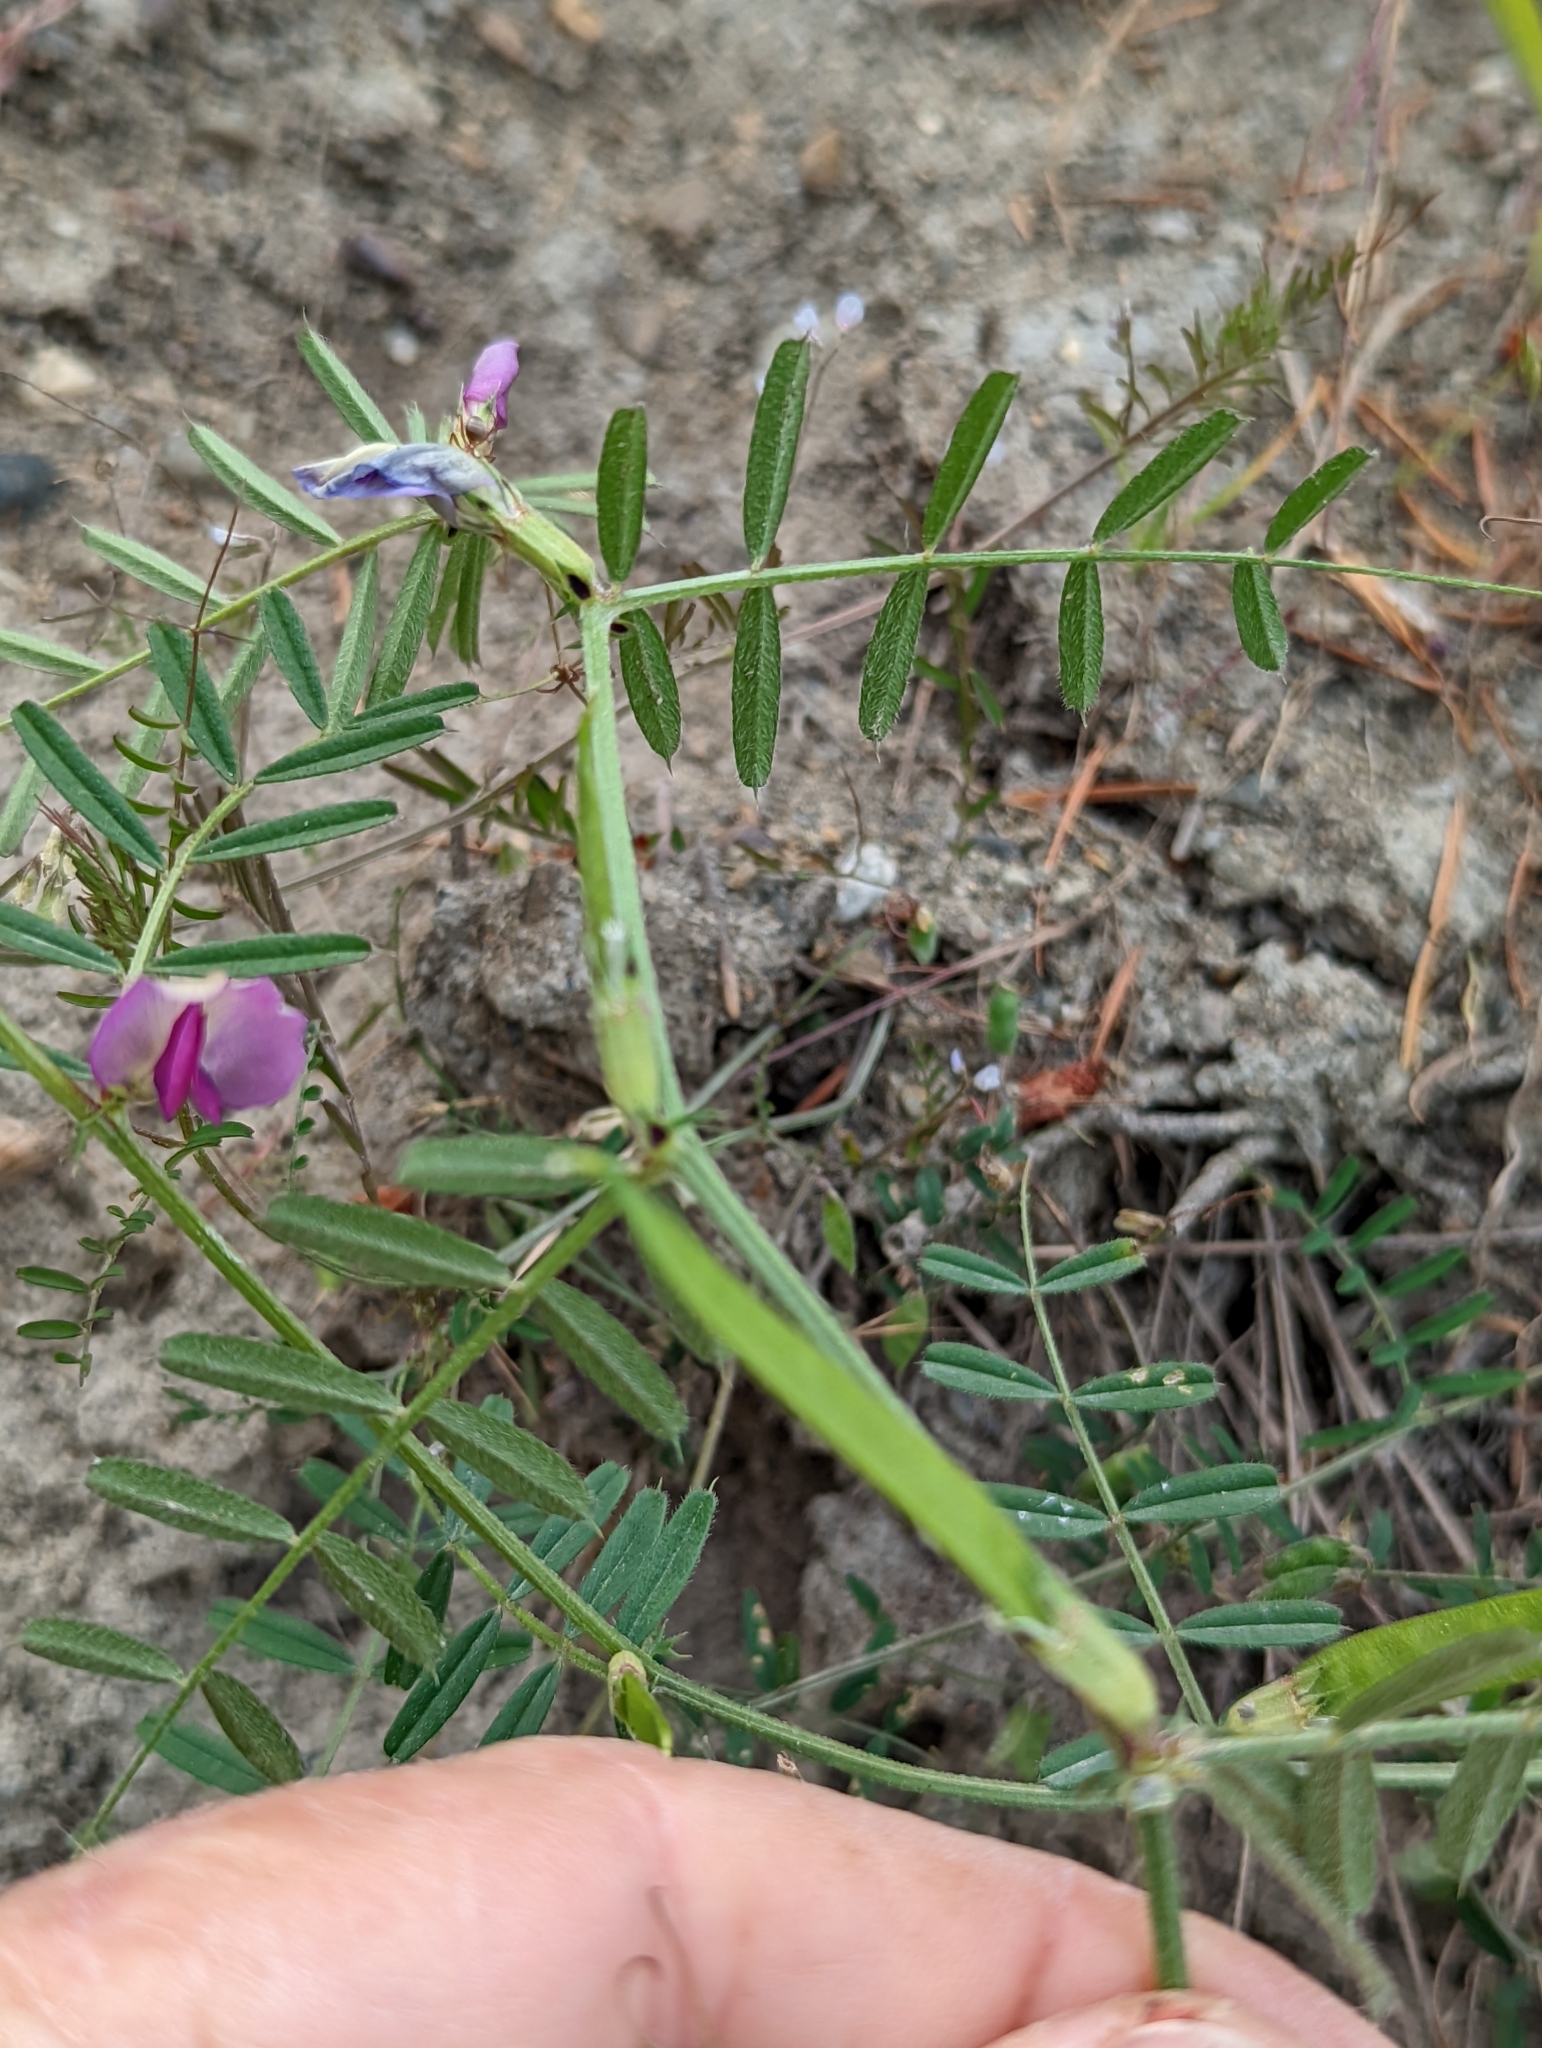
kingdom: Plantae
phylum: Tracheophyta
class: Magnoliopsida
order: Fabales
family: Fabaceae
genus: Vicia
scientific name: Vicia sativa
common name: Garden vetch
